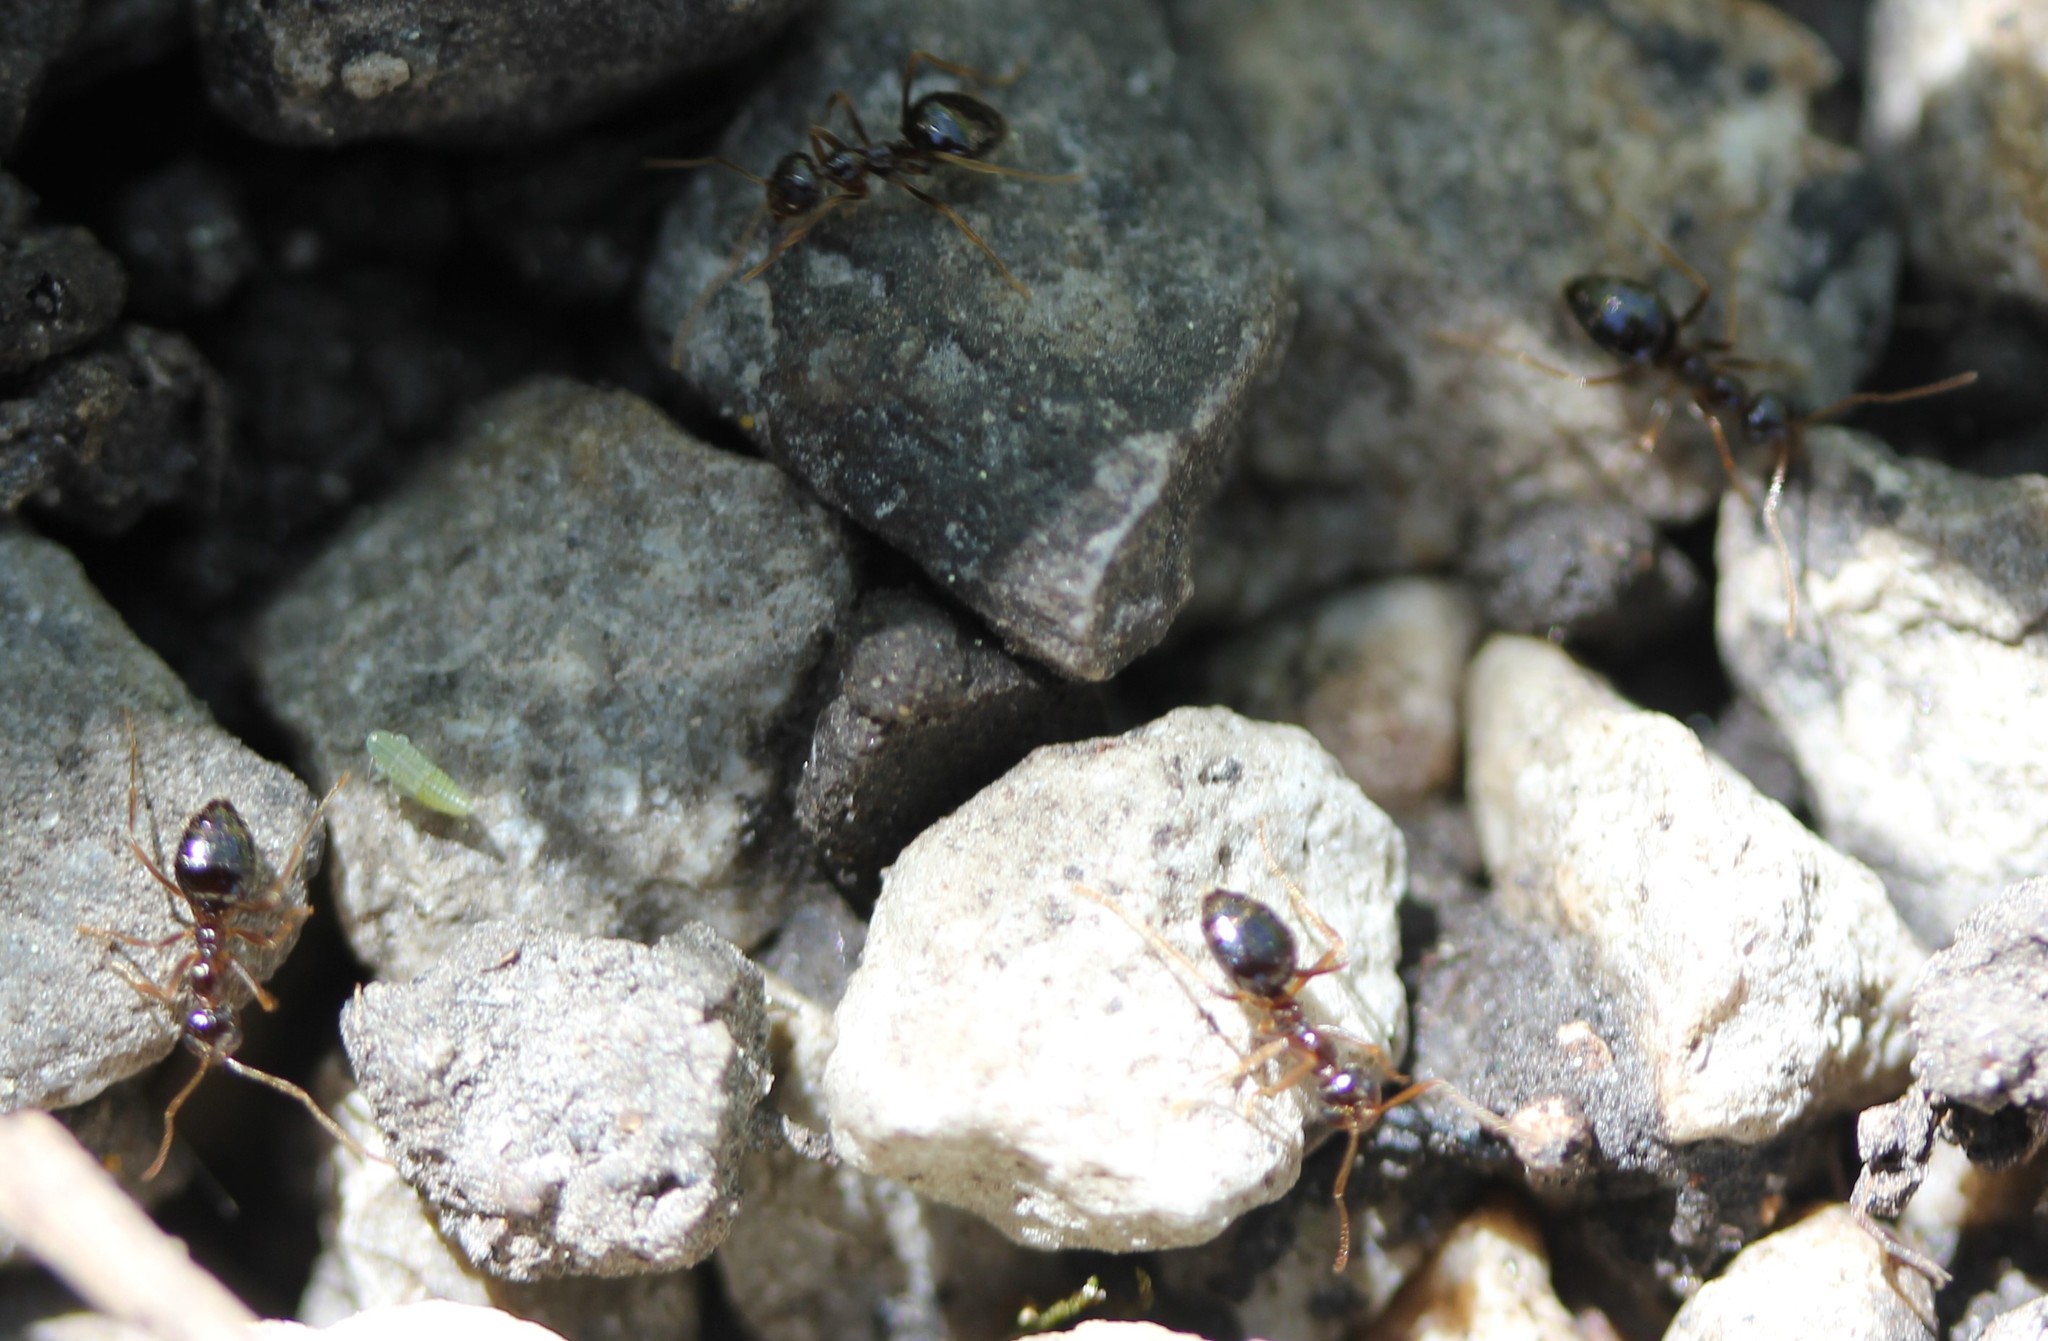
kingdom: Animalia
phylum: Arthropoda
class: Insecta
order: Hymenoptera
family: Formicidae
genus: Prenolepis
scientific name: Prenolepis imparis
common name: Small honey ant
